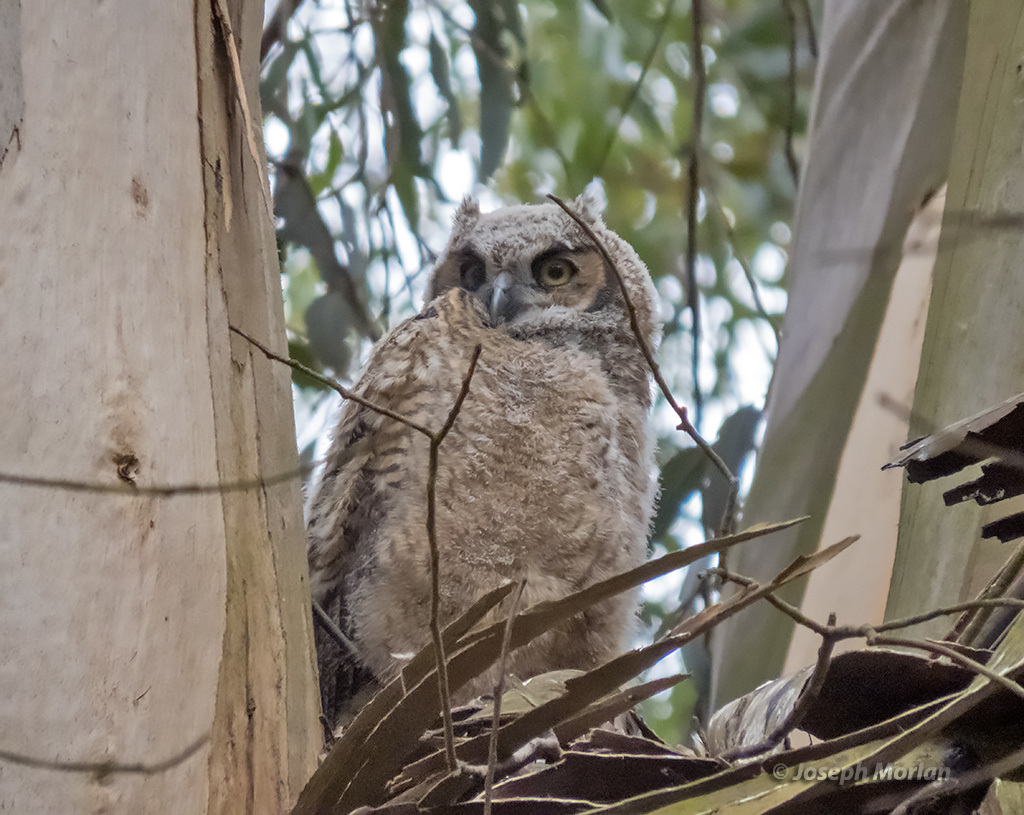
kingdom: Animalia
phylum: Chordata
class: Aves
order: Strigiformes
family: Strigidae
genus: Bubo
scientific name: Bubo virginianus
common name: Great horned owl
